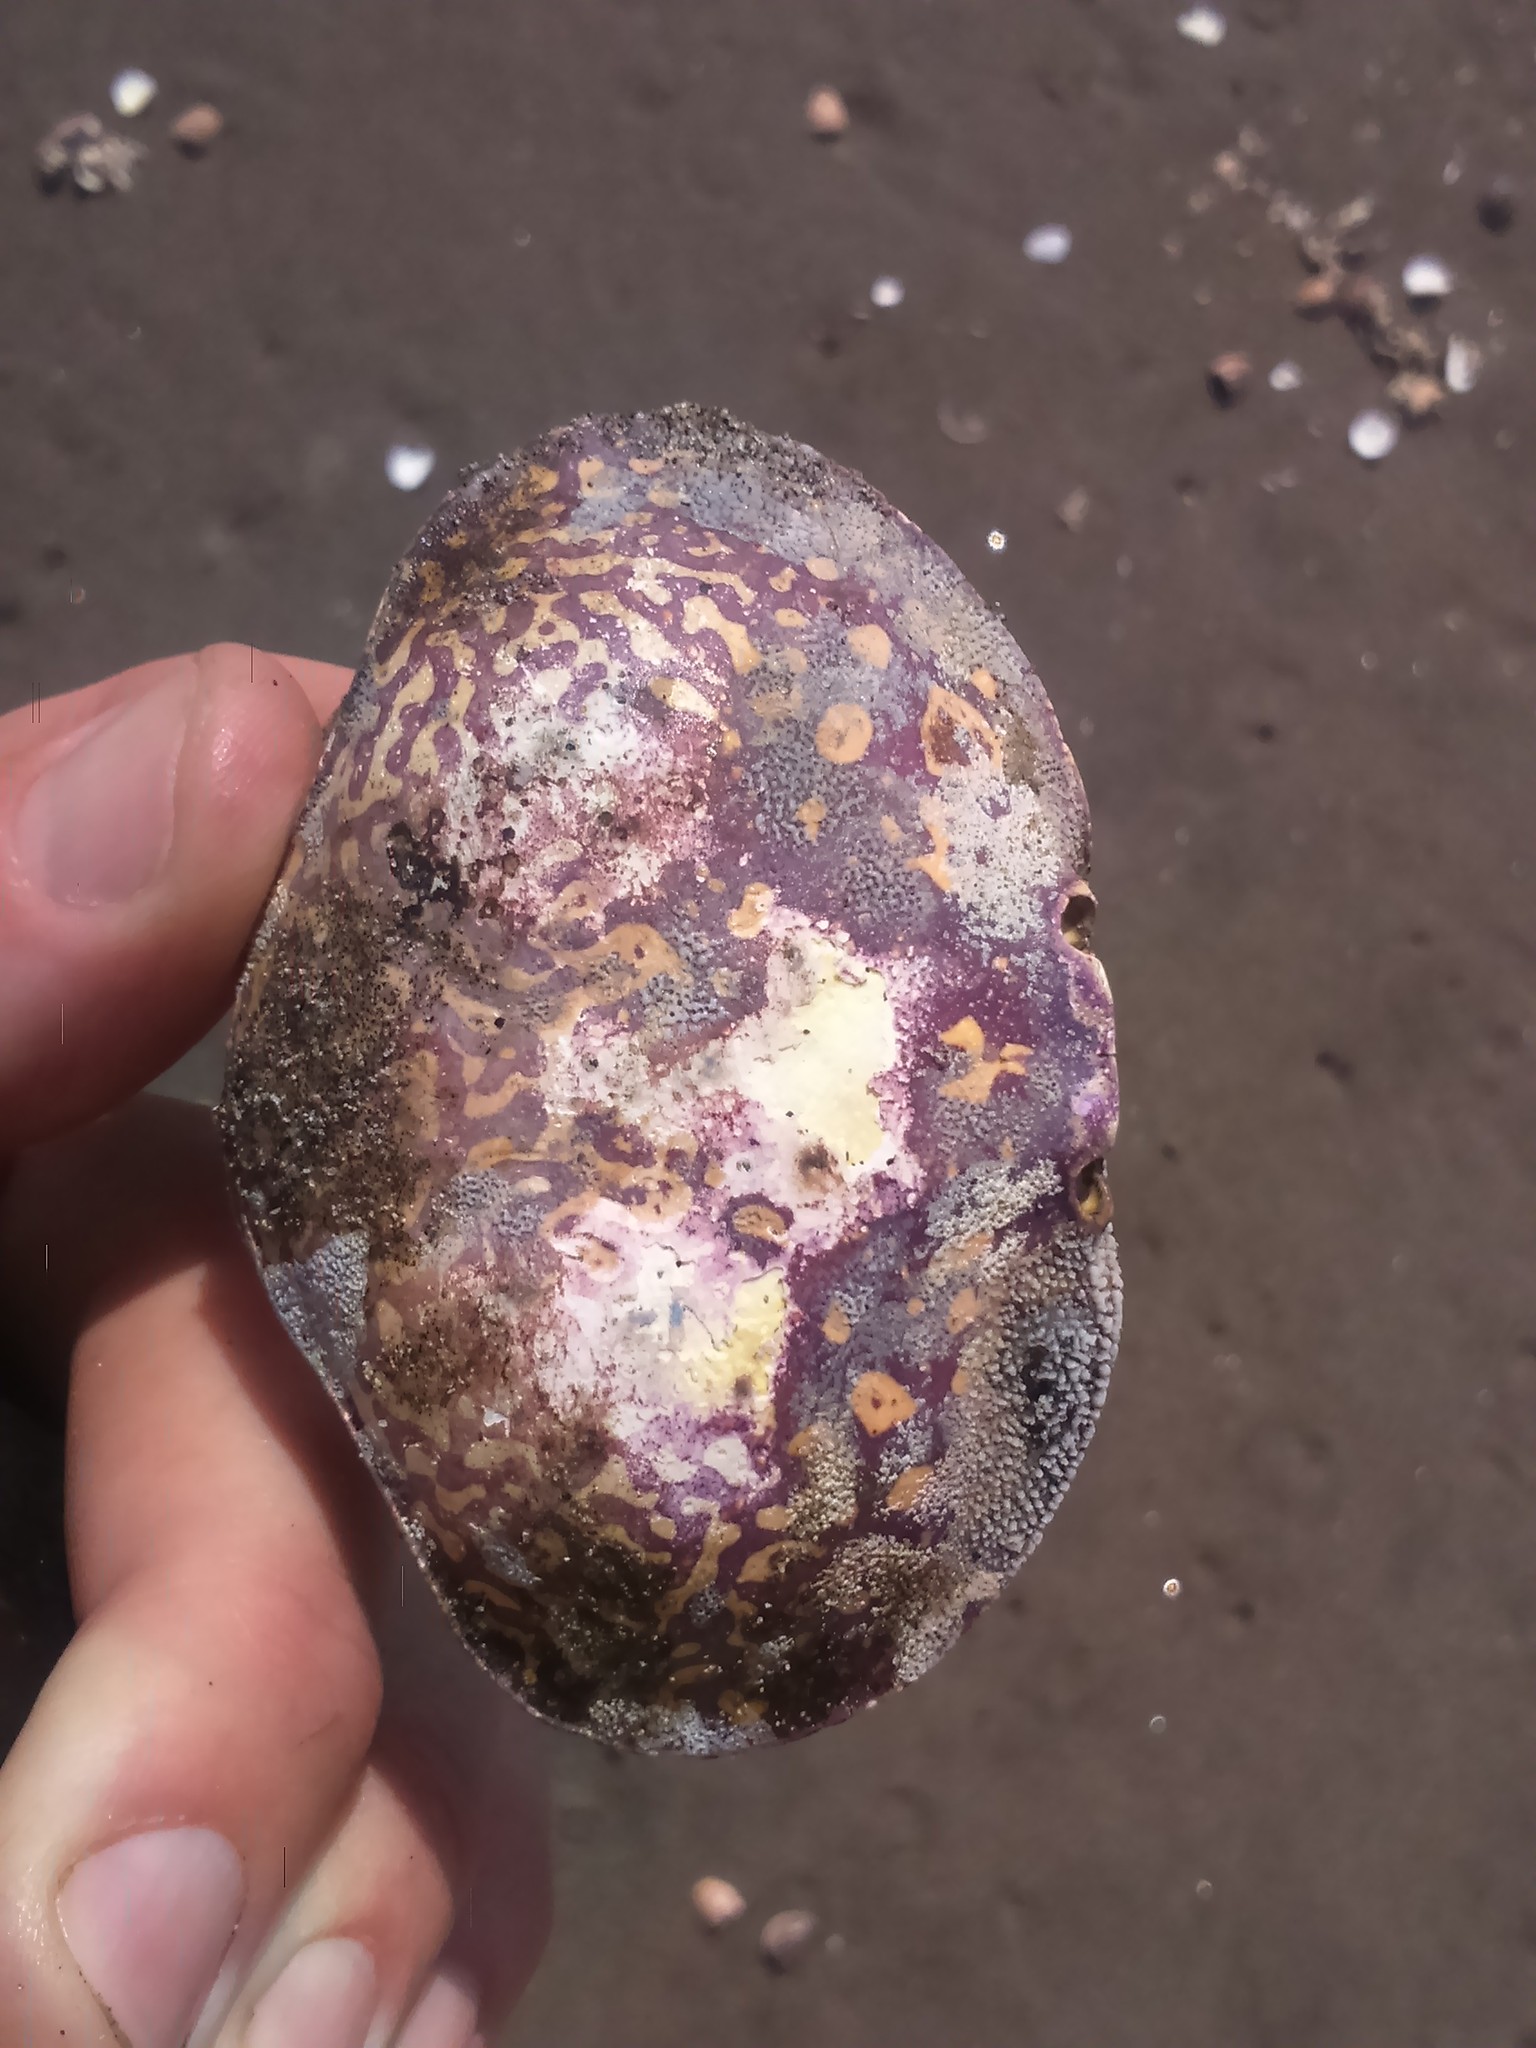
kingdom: Animalia
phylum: Arthropoda
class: Malacostraca
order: Decapoda
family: Aethridae
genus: Hepatus
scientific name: Hepatus chiliensis
